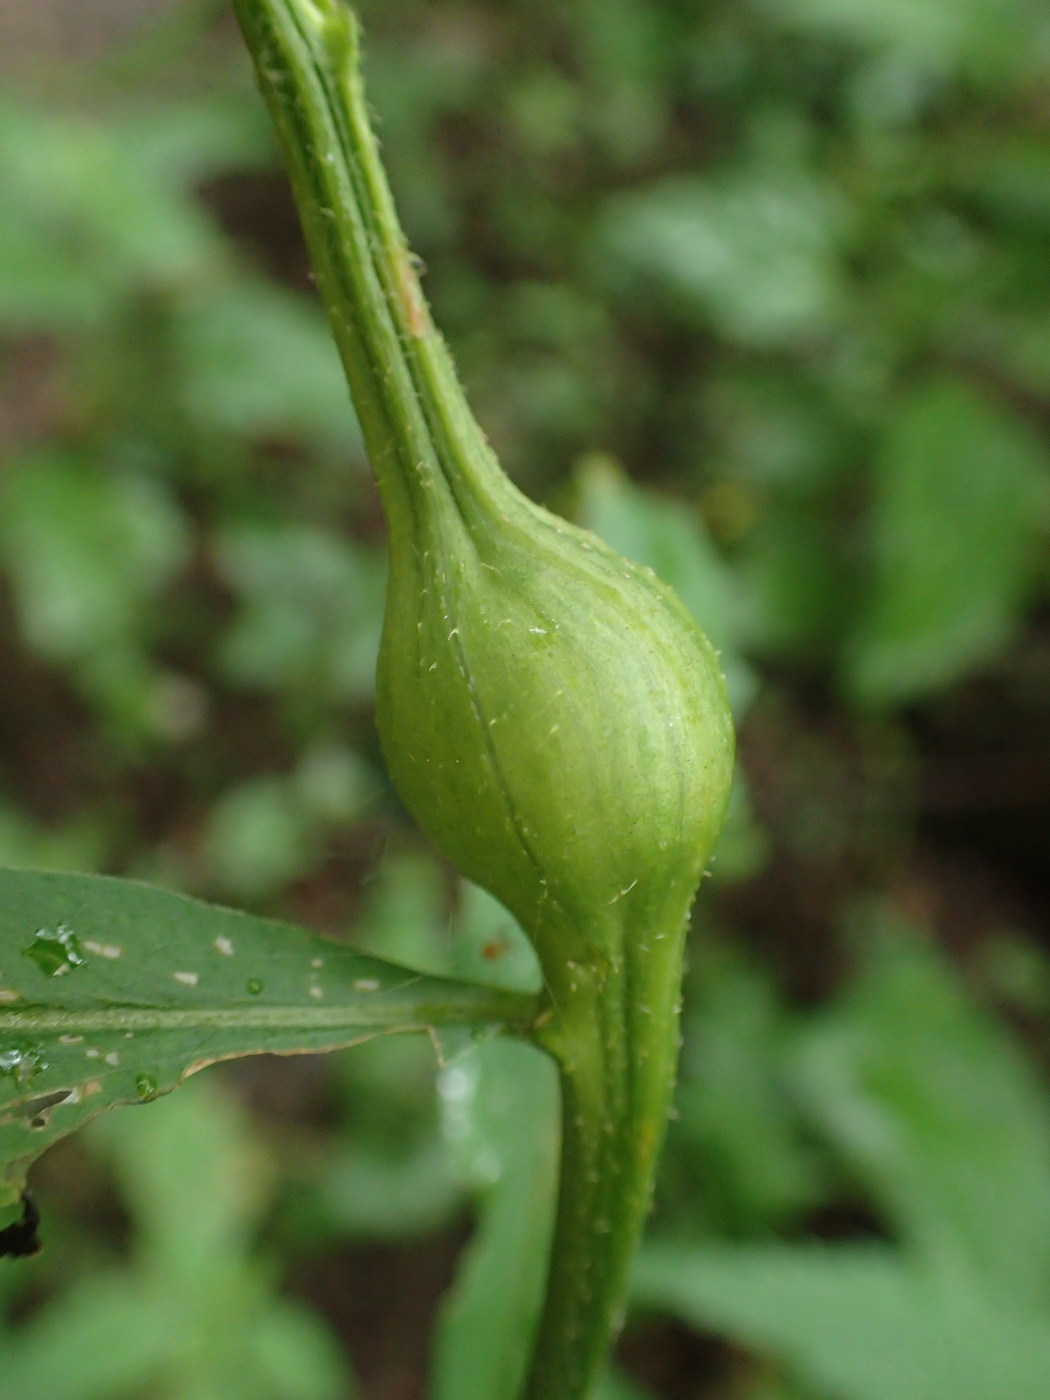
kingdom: Animalia
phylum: Arthropoda
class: Insecta
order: Diptera
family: Tephritidae
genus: Eurosta
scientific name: Eurosta solidaginis
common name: Goldenrod gall fly
